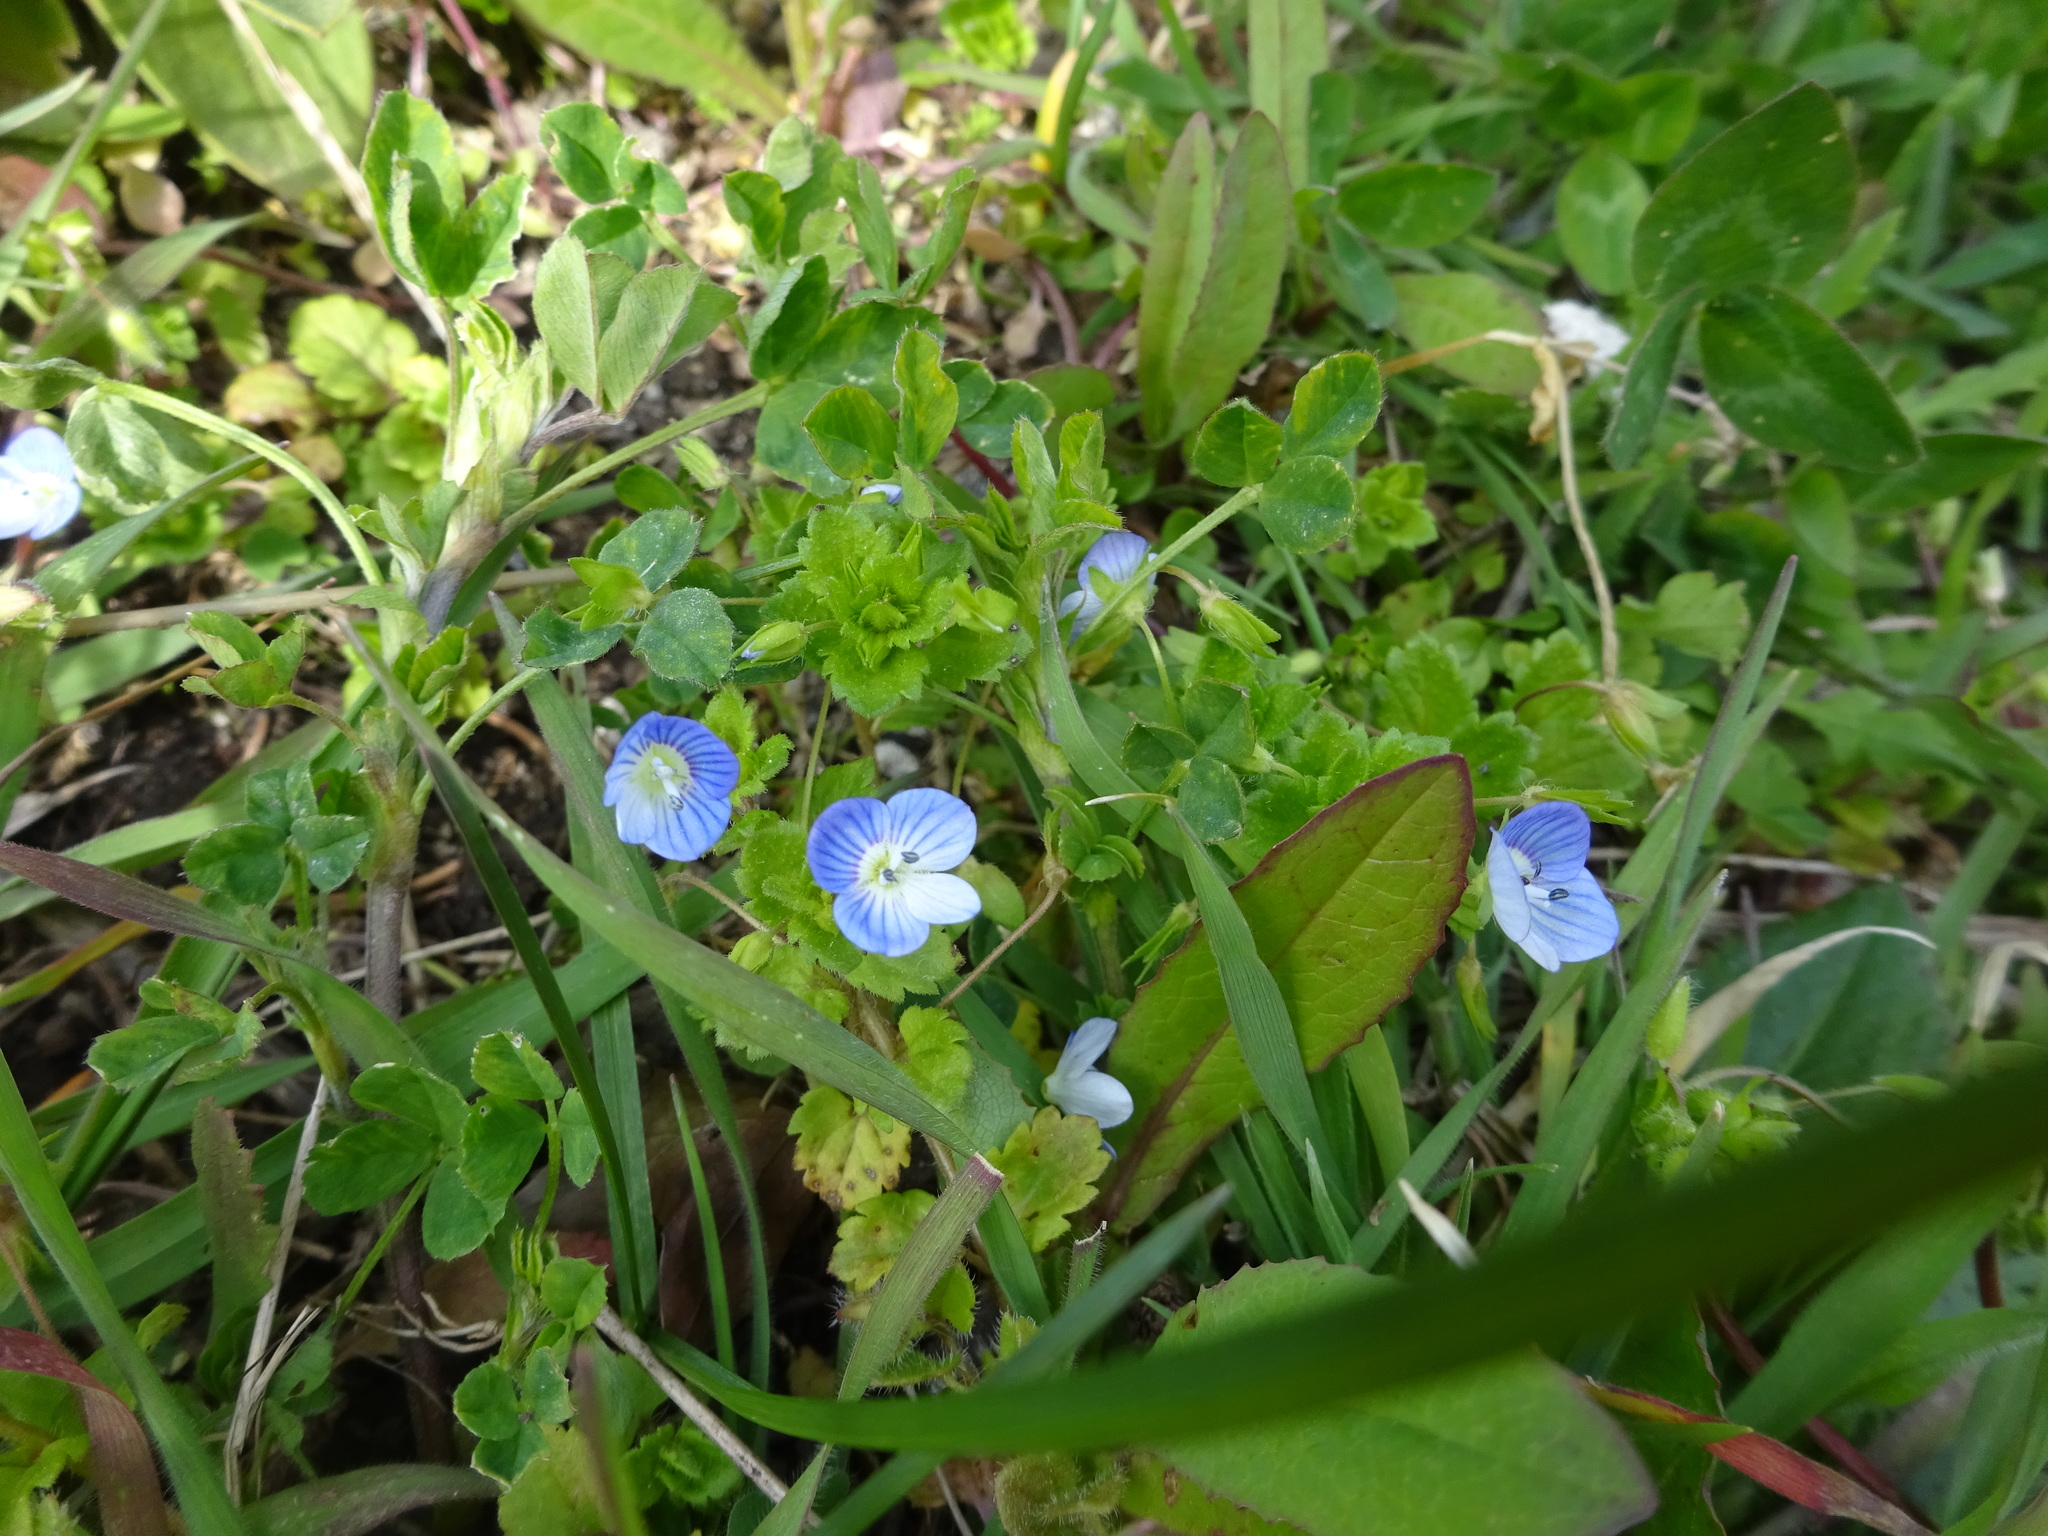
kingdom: Plantae
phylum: Tracheophyta
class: Magnoliopsida
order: Lamiales
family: Plantaginaceae
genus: Veronica
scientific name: Veronica persica
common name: Common field-speedwell
